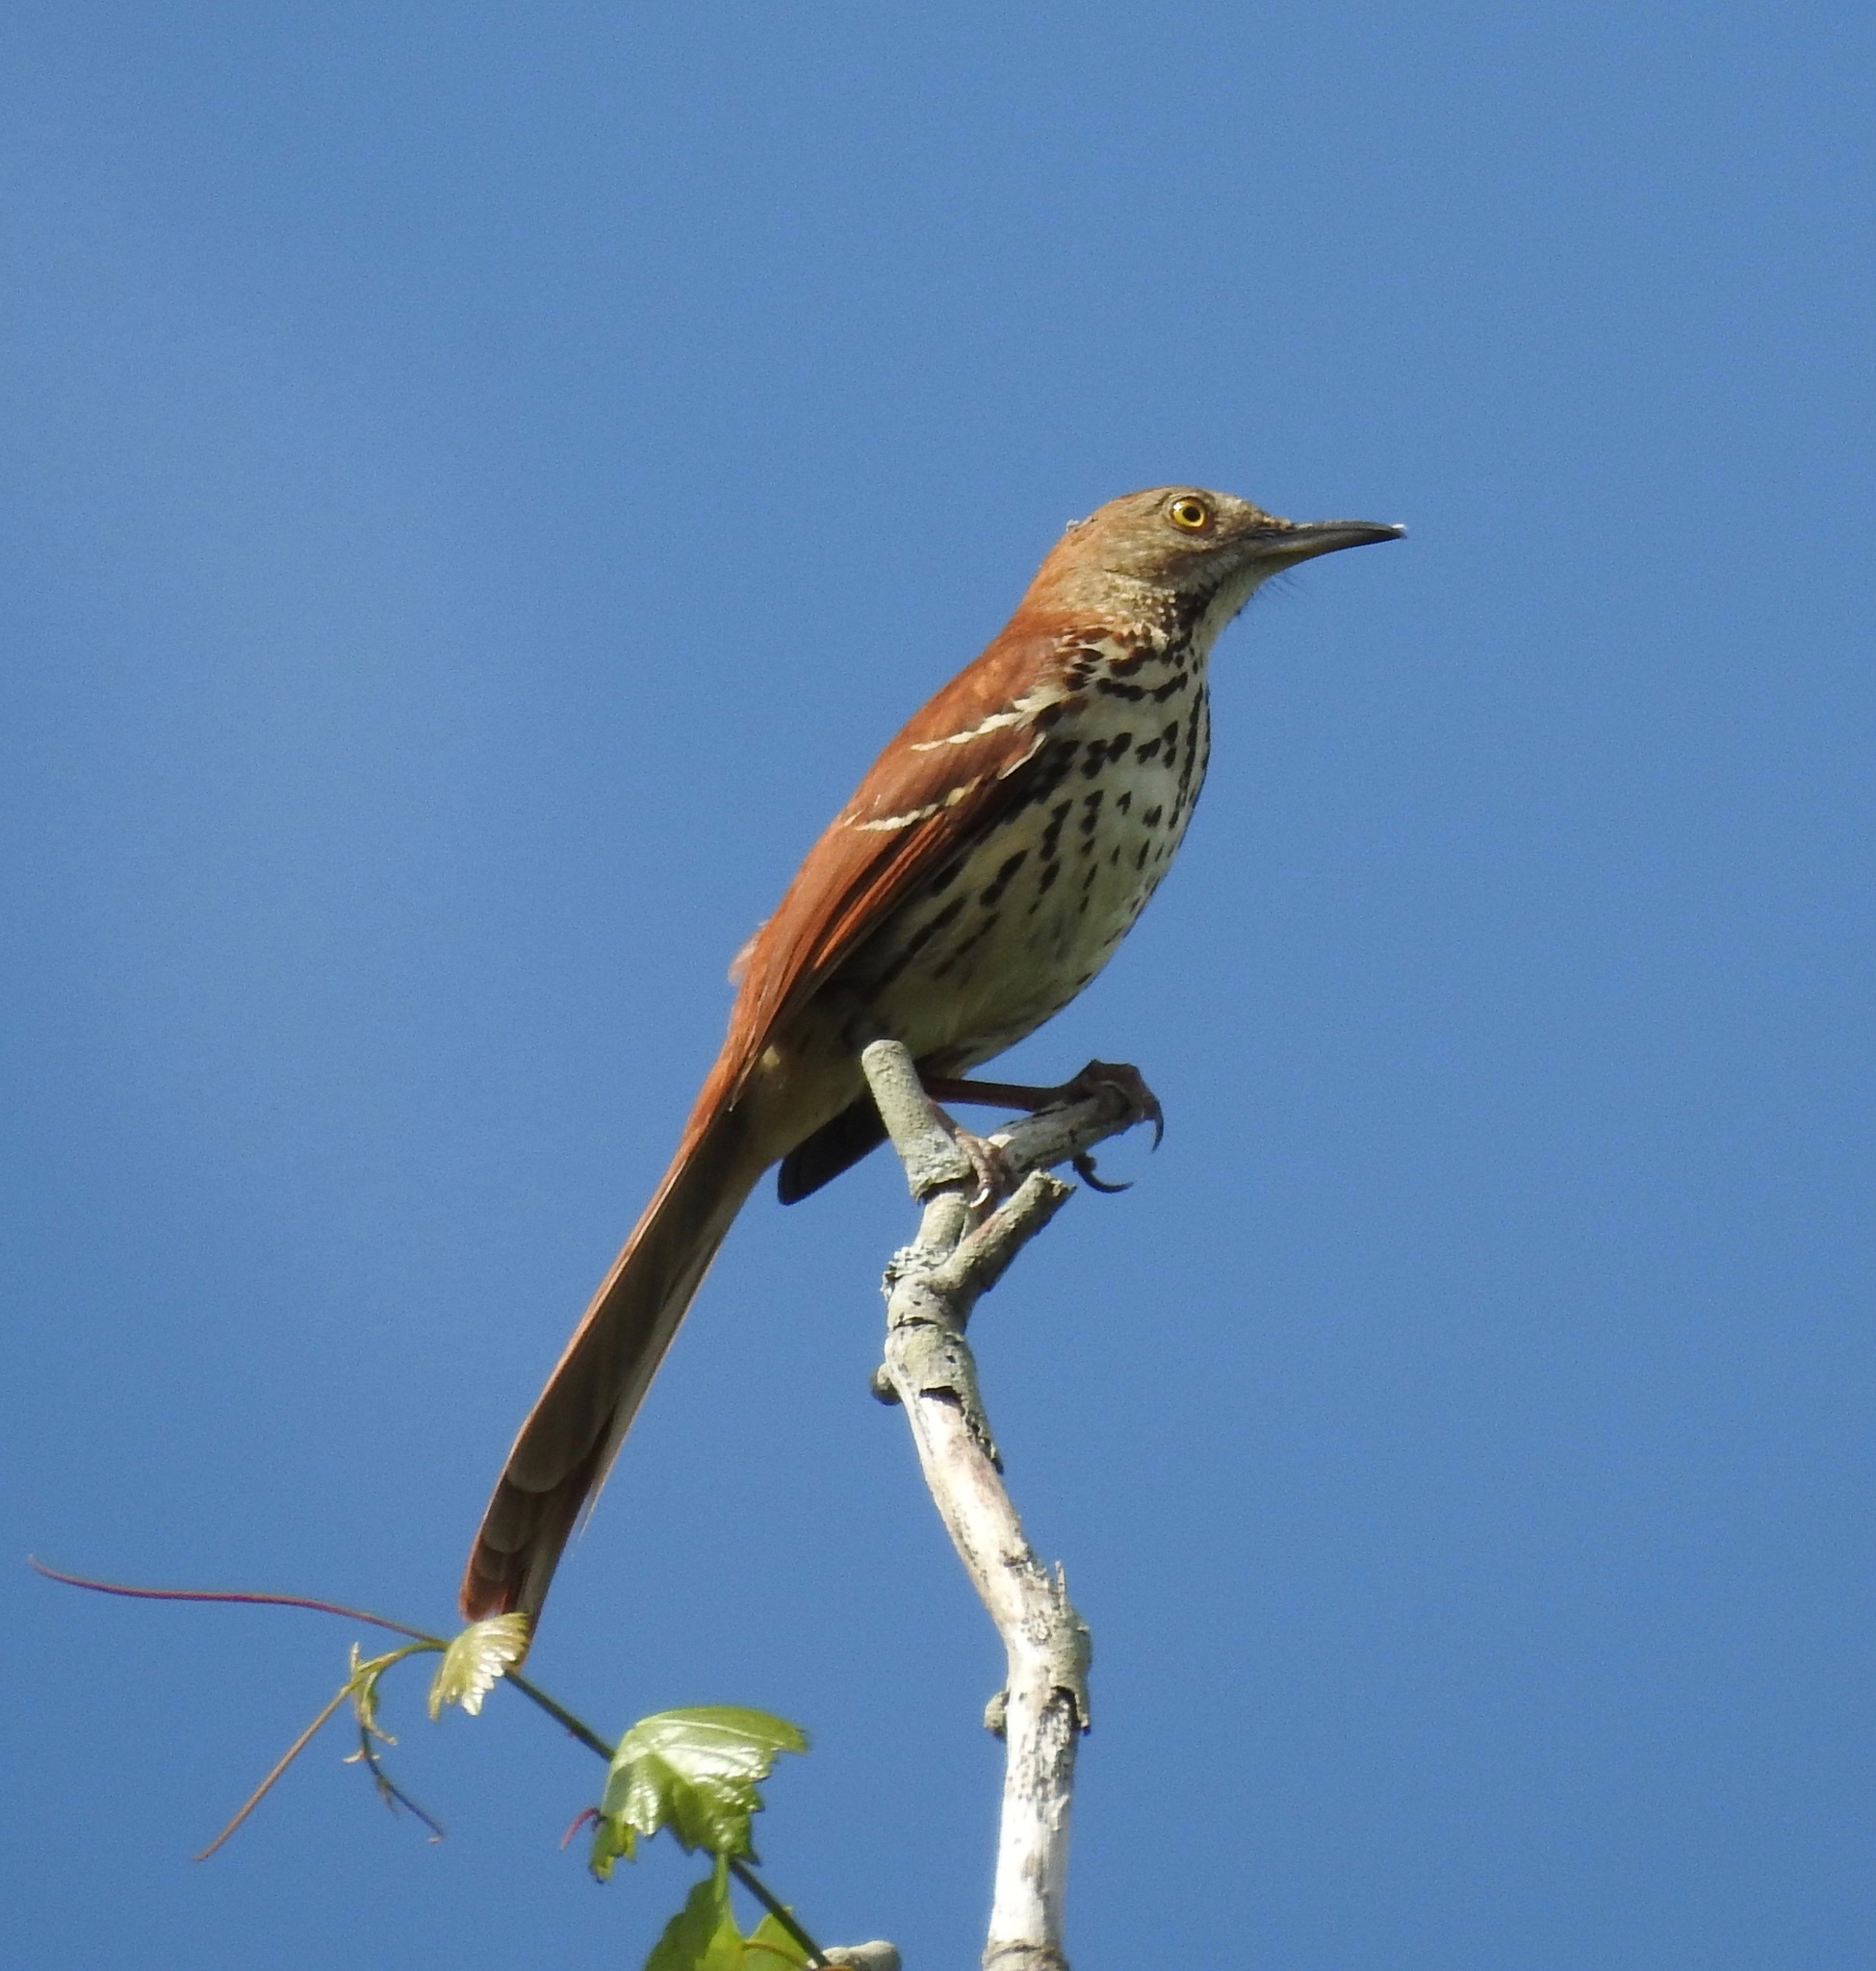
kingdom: Animalia
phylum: Chordata
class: Aves
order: Passeriformes
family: Mimidae
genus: Toxostoma
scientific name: Toxostoma rufum
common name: Brown thrasher
